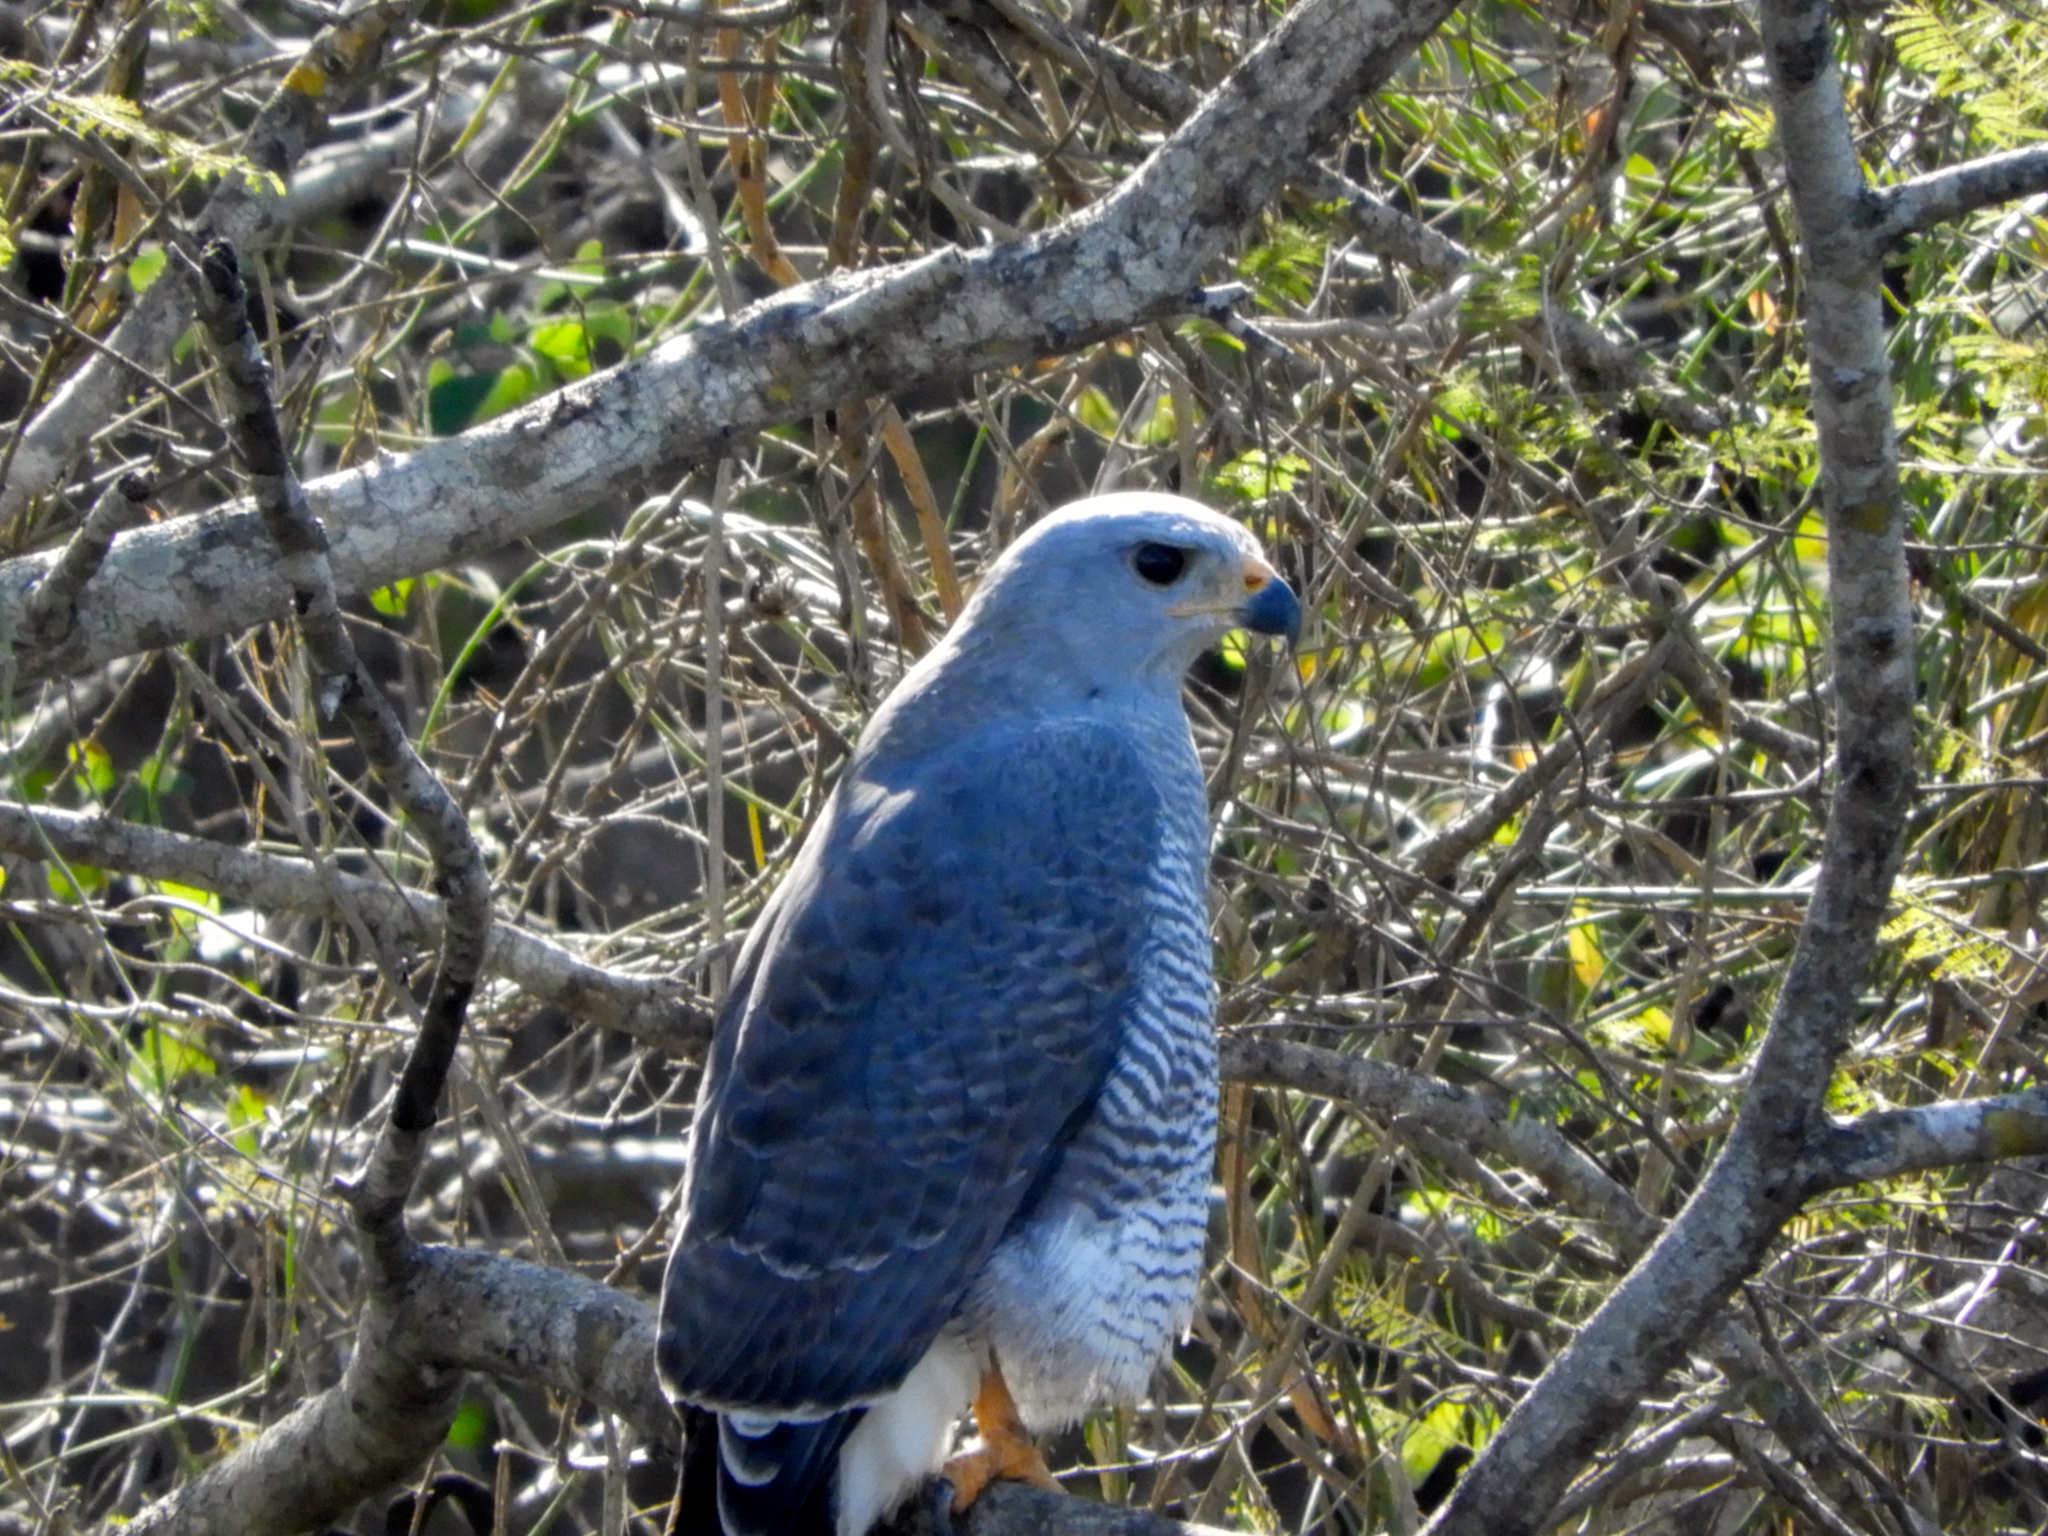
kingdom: Animalia
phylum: Chordata
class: Aves
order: Accipitriformes
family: Accipitridae
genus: Buteo
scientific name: Buteo nitidus
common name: Grey-lined hawk
